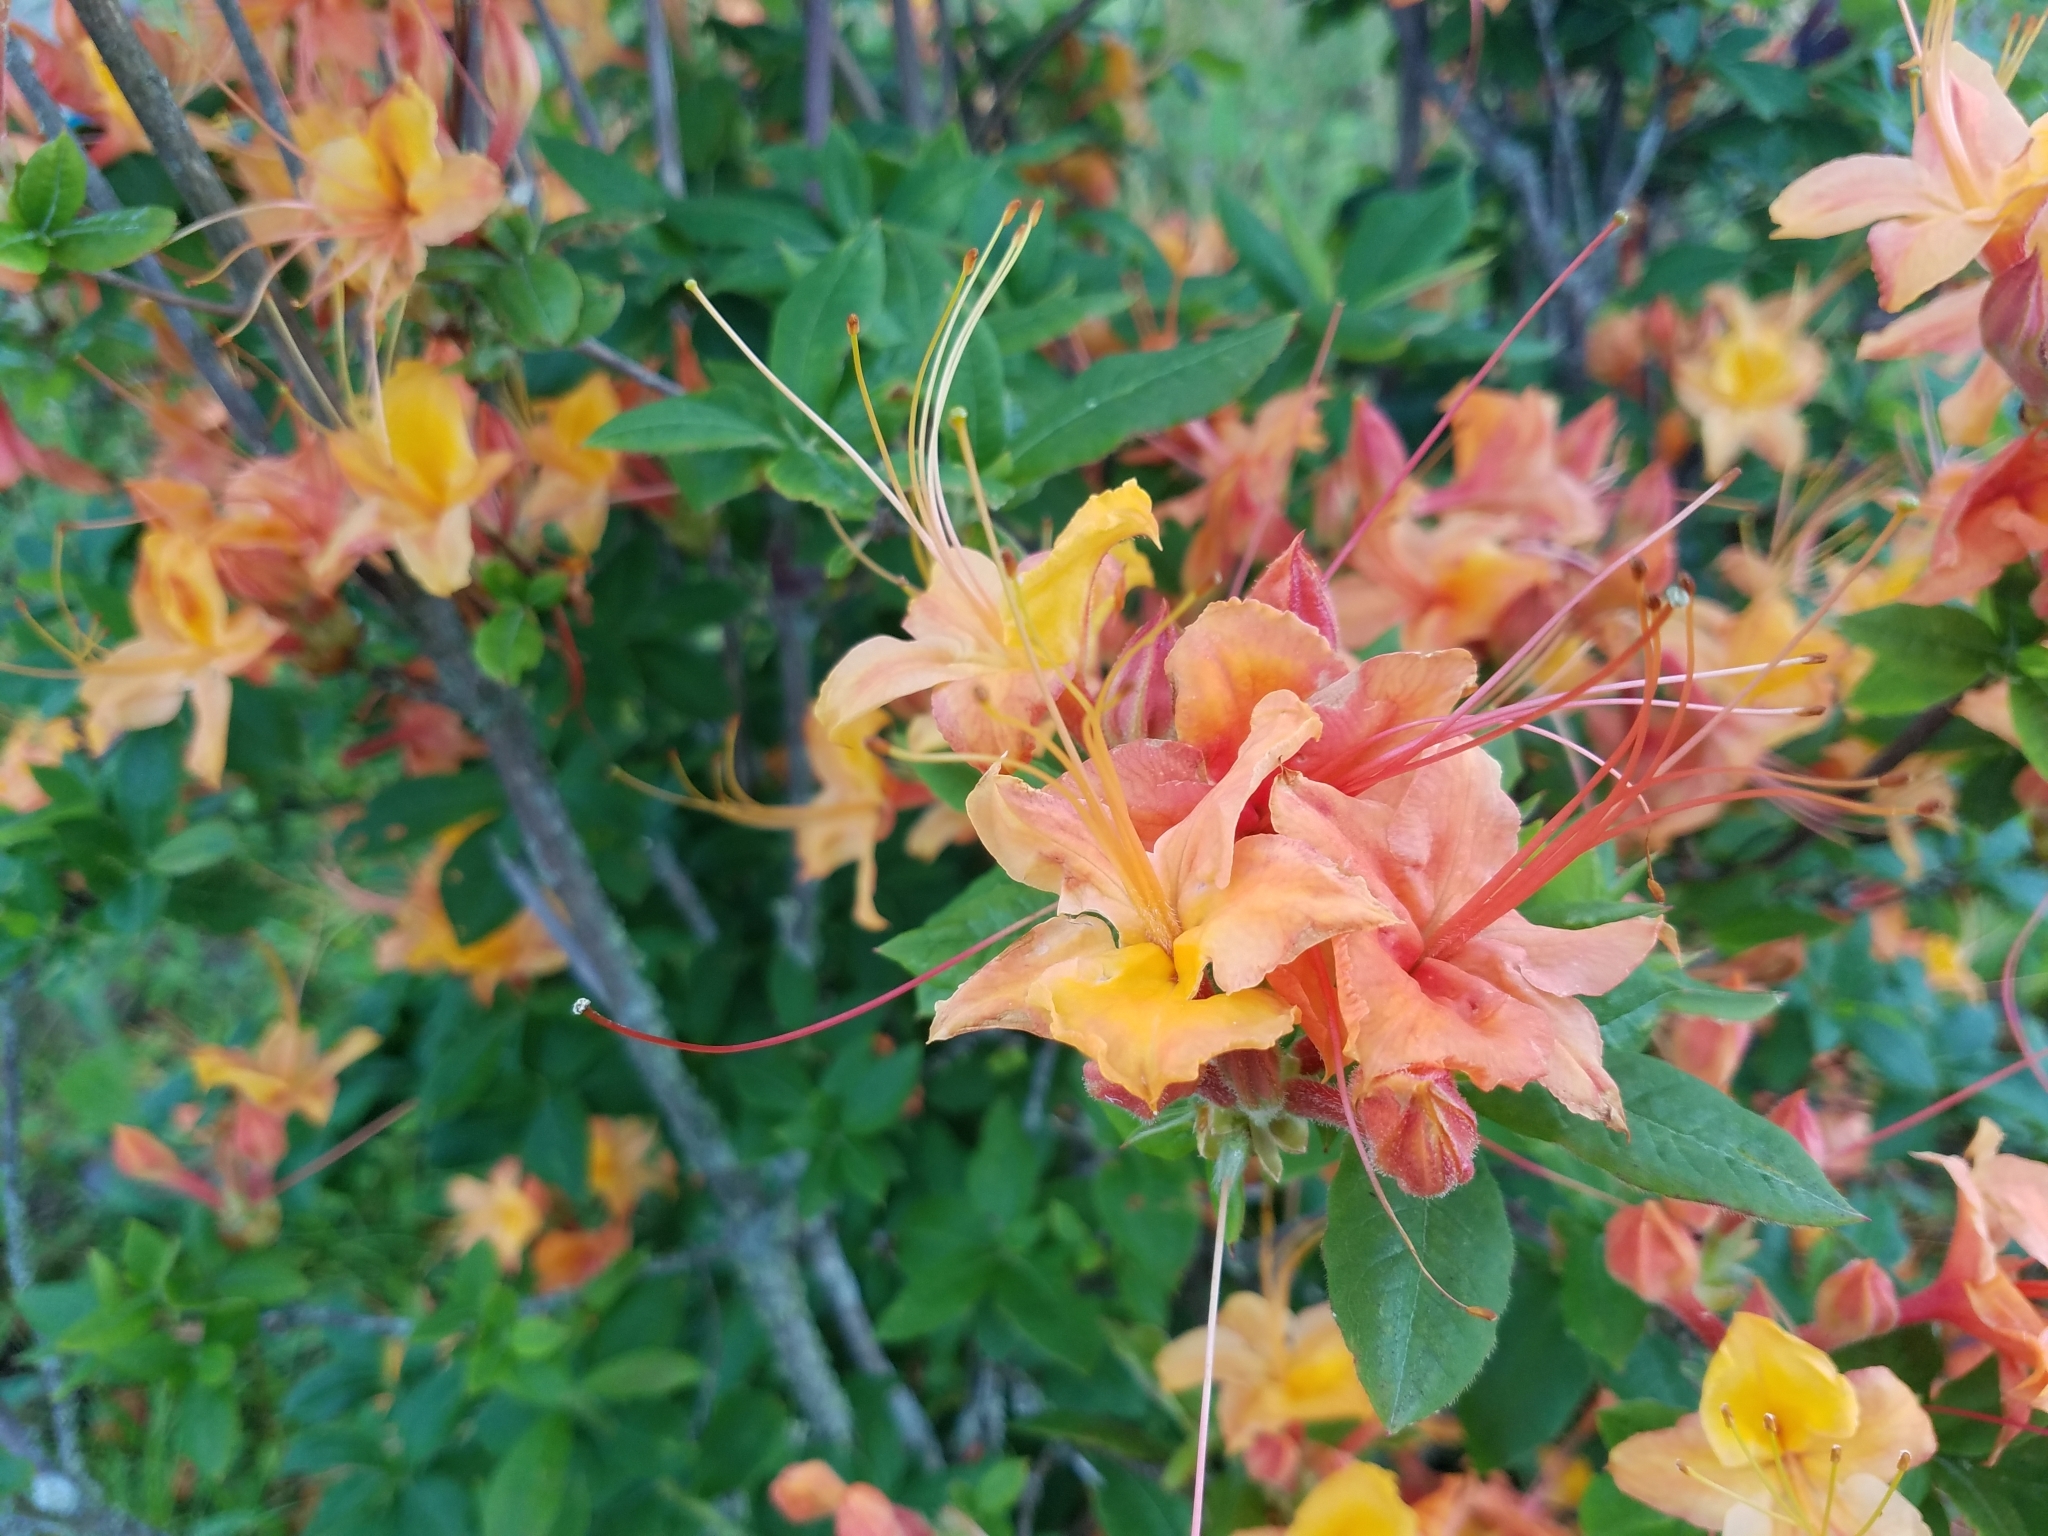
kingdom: Plantae
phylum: Tracheophyta
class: Magnoliopsida
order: Ericales
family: Ericaceae
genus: Rhododendron
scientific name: Rhododendron calendulaceum
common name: Flame azalea
